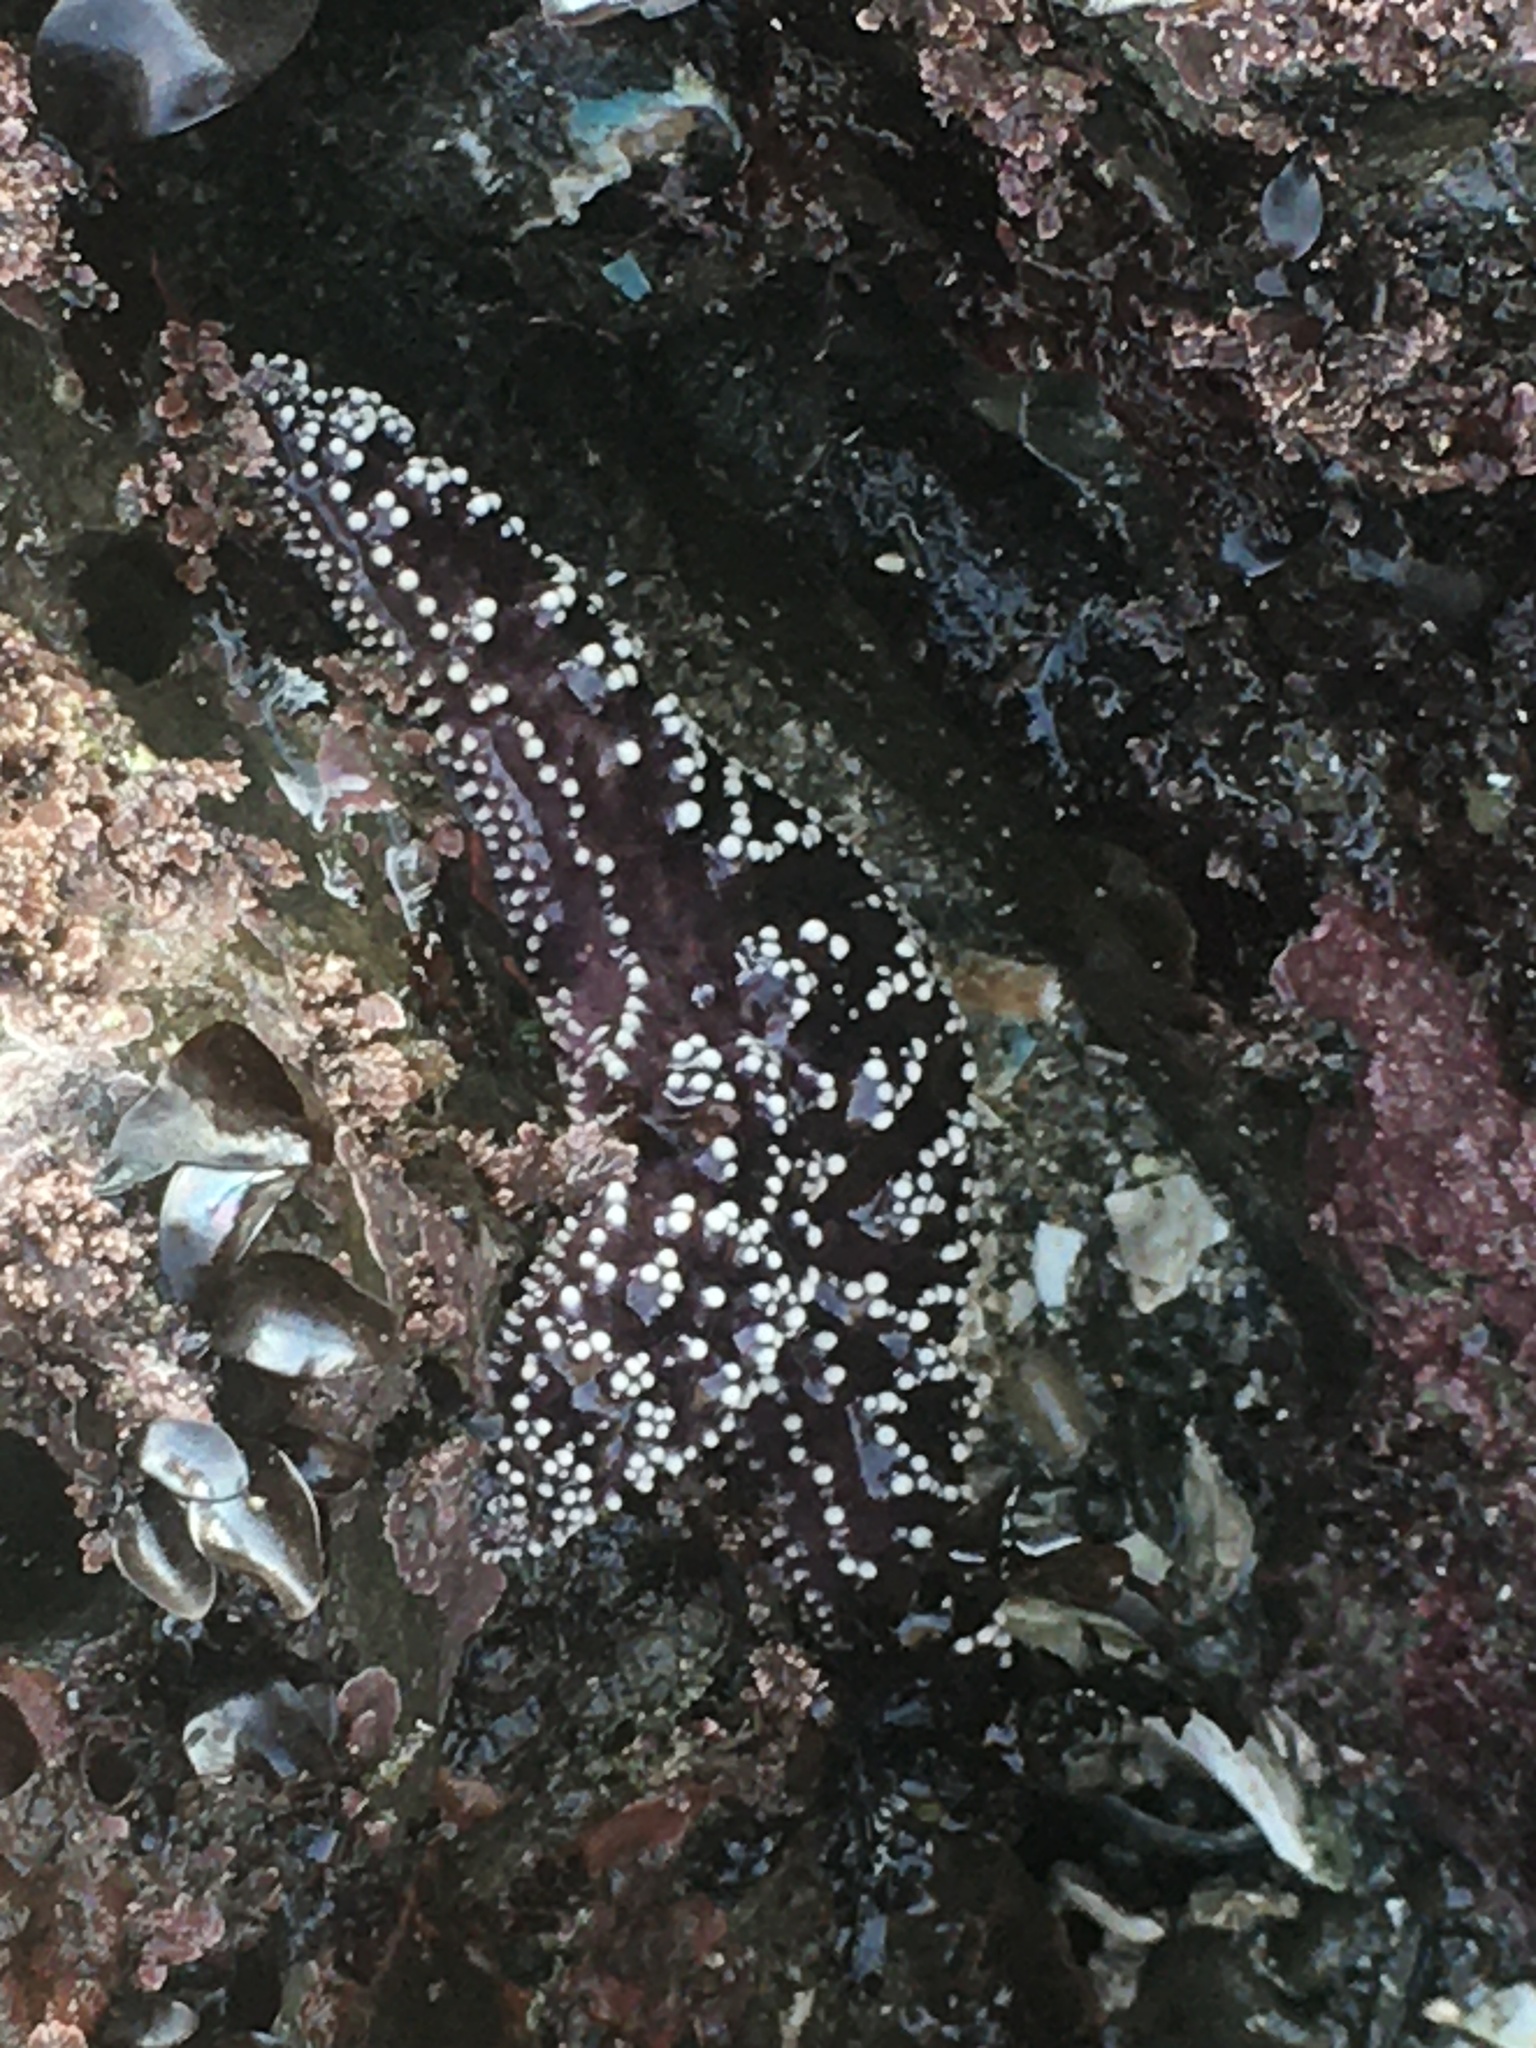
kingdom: Animalia
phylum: Echinodermata
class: Asteroidea
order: Forcipulatida
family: Asteriidae
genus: Pisaster
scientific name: Pisaster ochraceus
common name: Ochre stars
